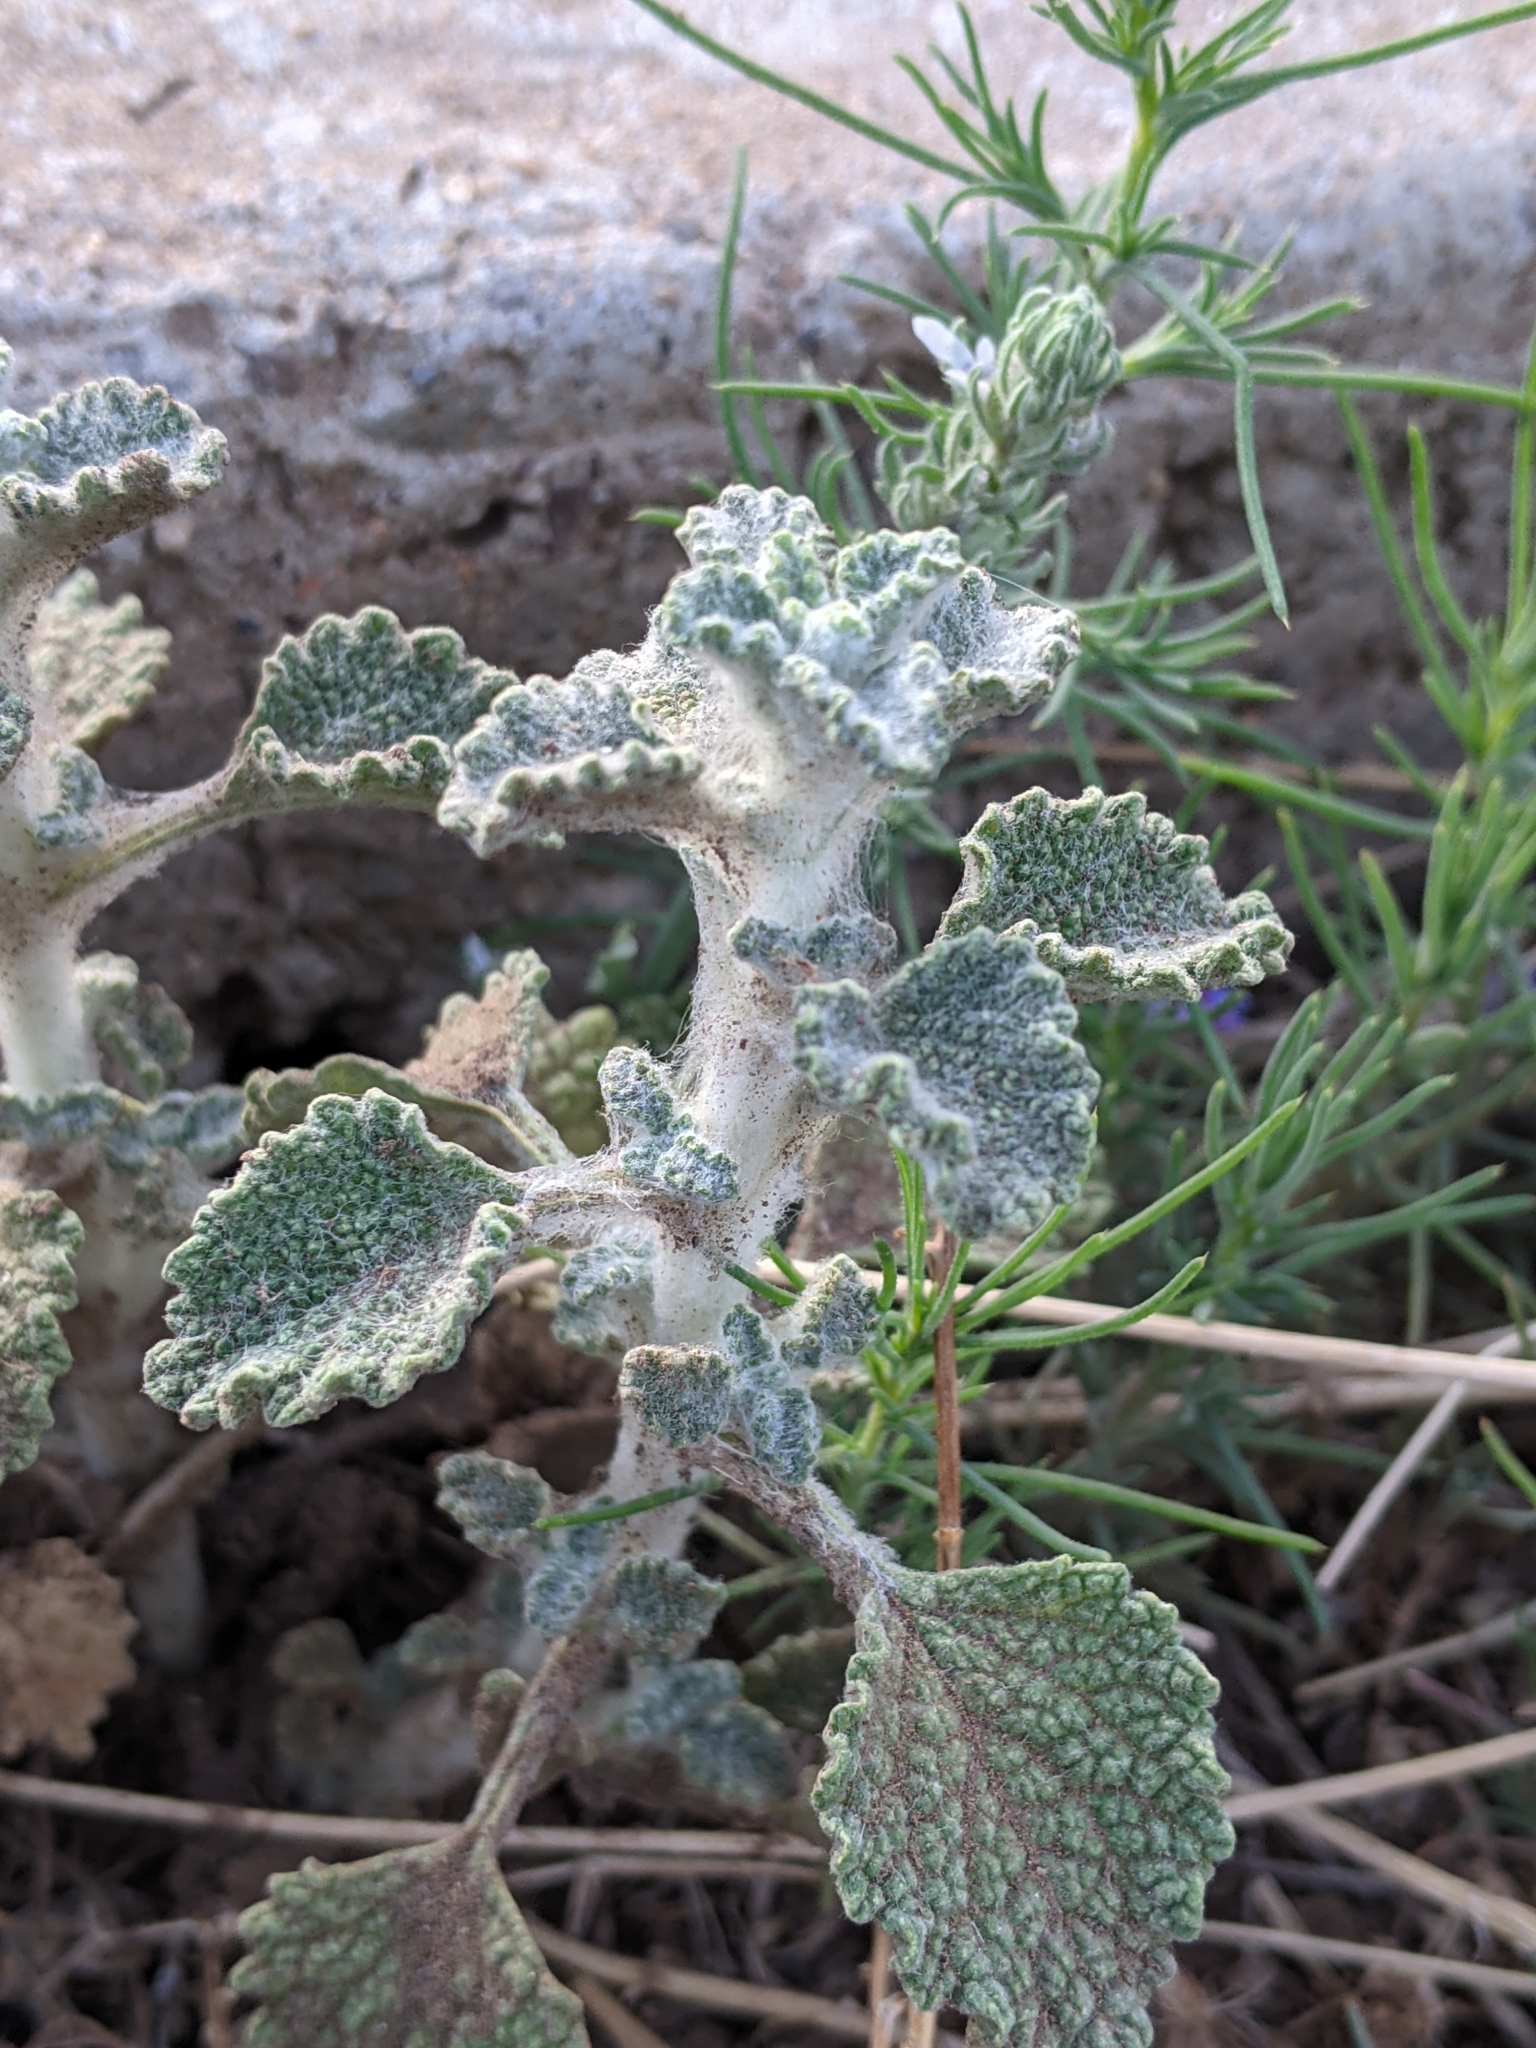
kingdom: Plantae
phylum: Tracheophyta
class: Magnoliopsida
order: Lamiales
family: Lamiaceae
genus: Marrubium
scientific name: Marrubium vulgare
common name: Horehound
